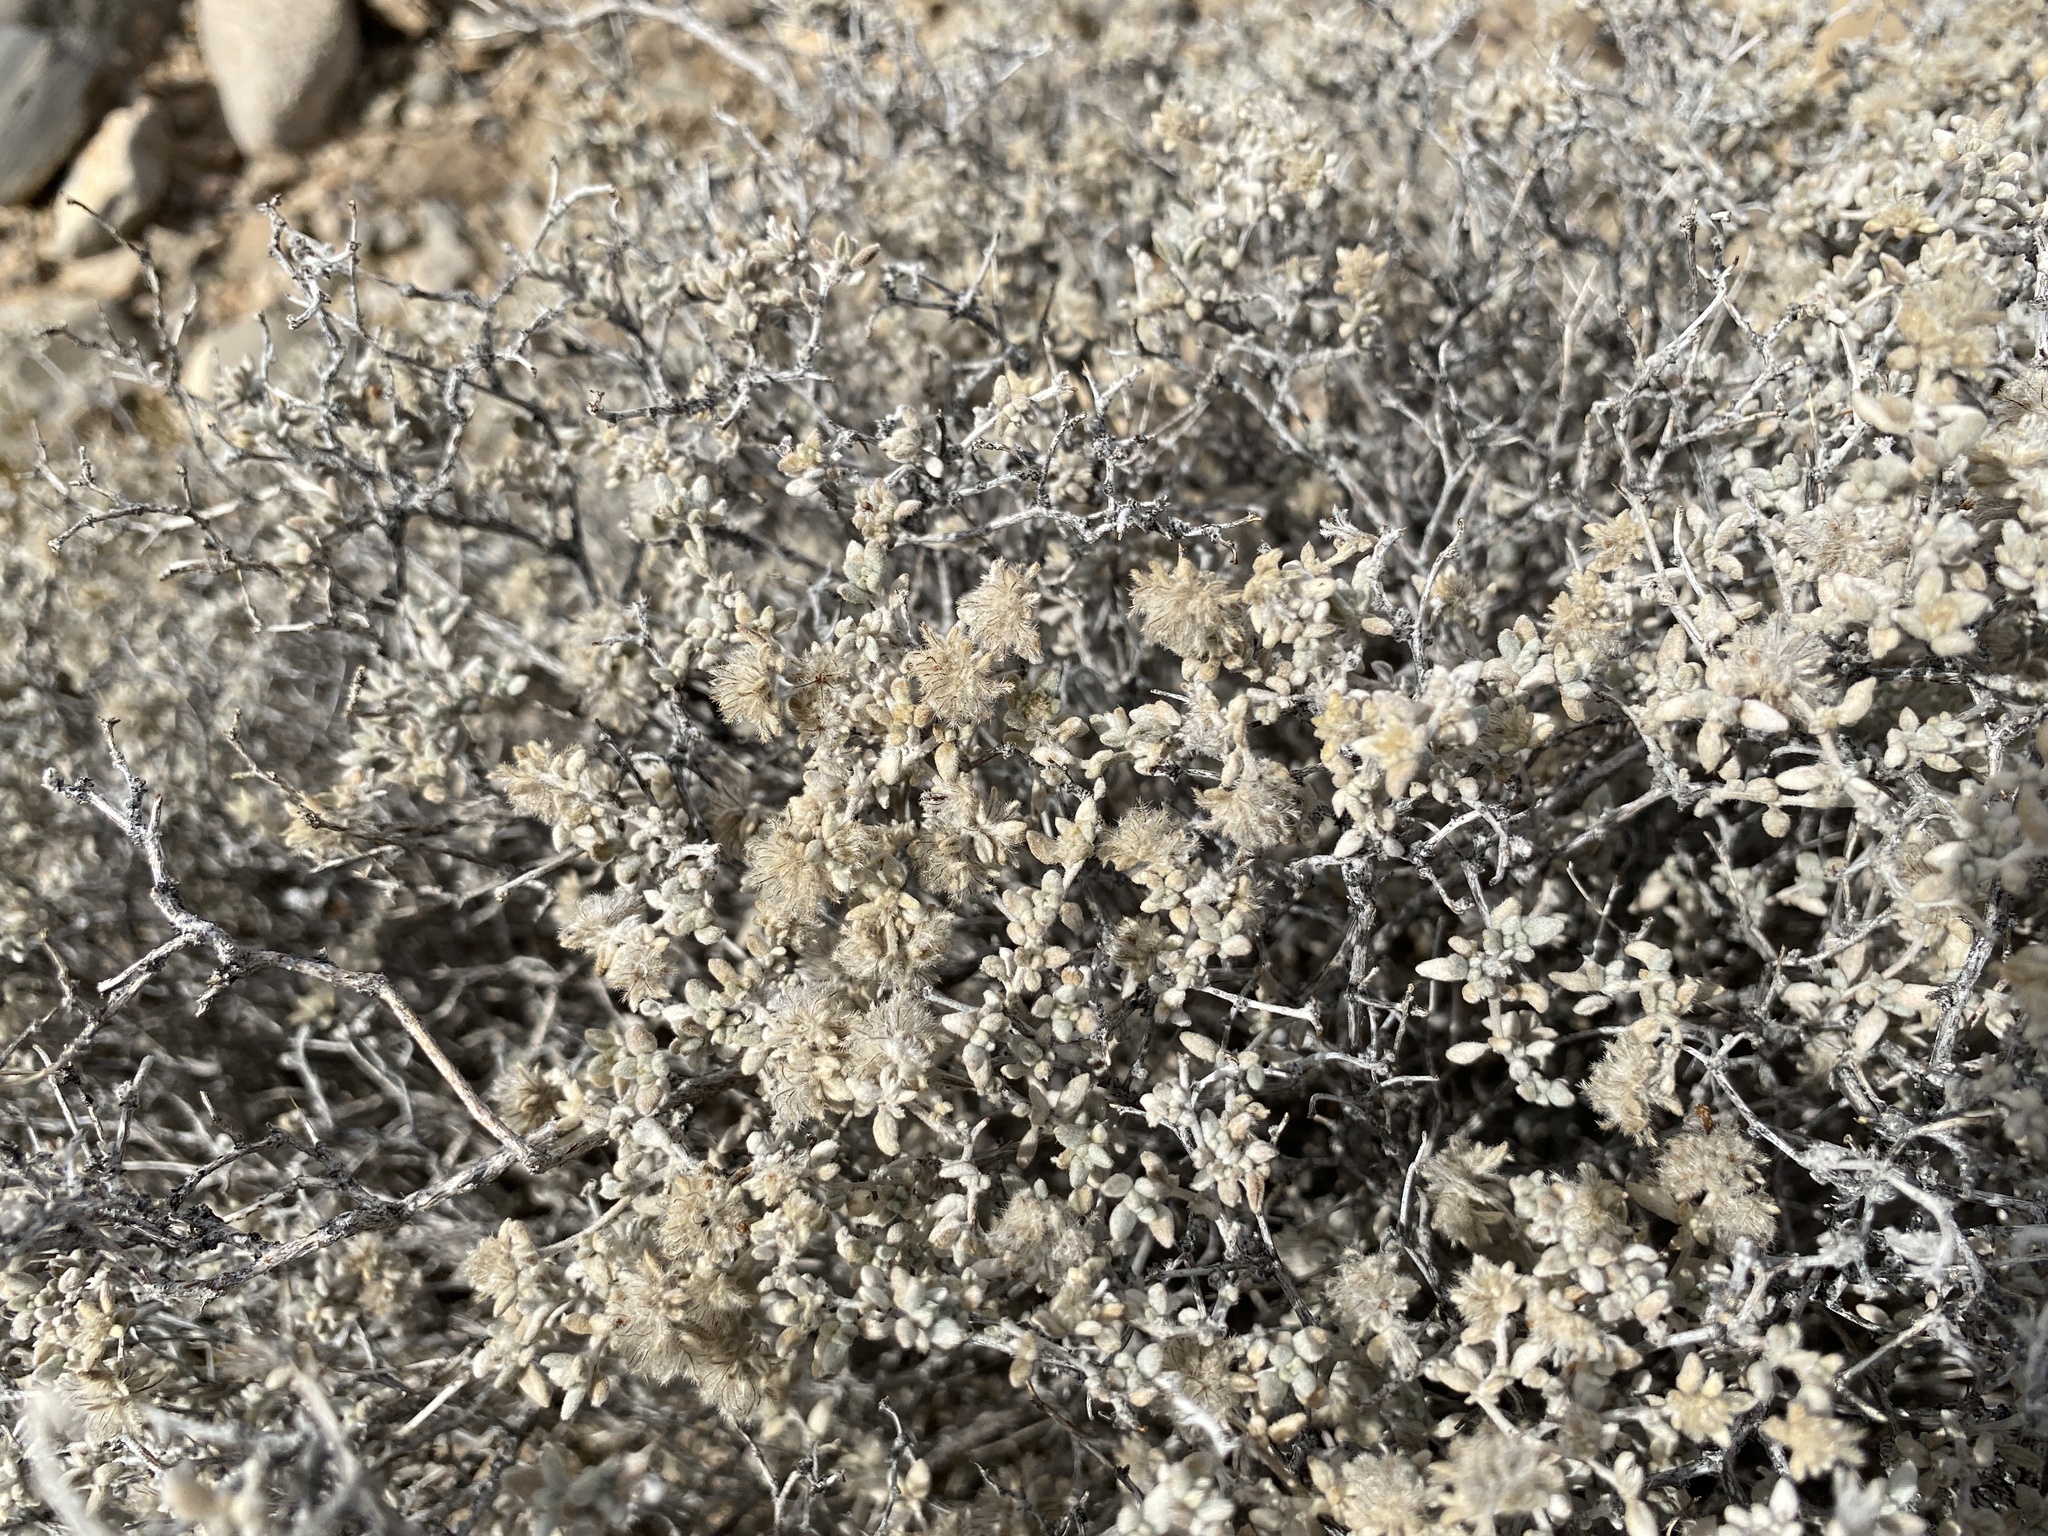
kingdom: Plantae
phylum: Tracheophyta
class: Magnoliopsida
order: Boraginales
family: Ehretiaceae
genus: Tiquilia
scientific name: Tiquilia greggii
